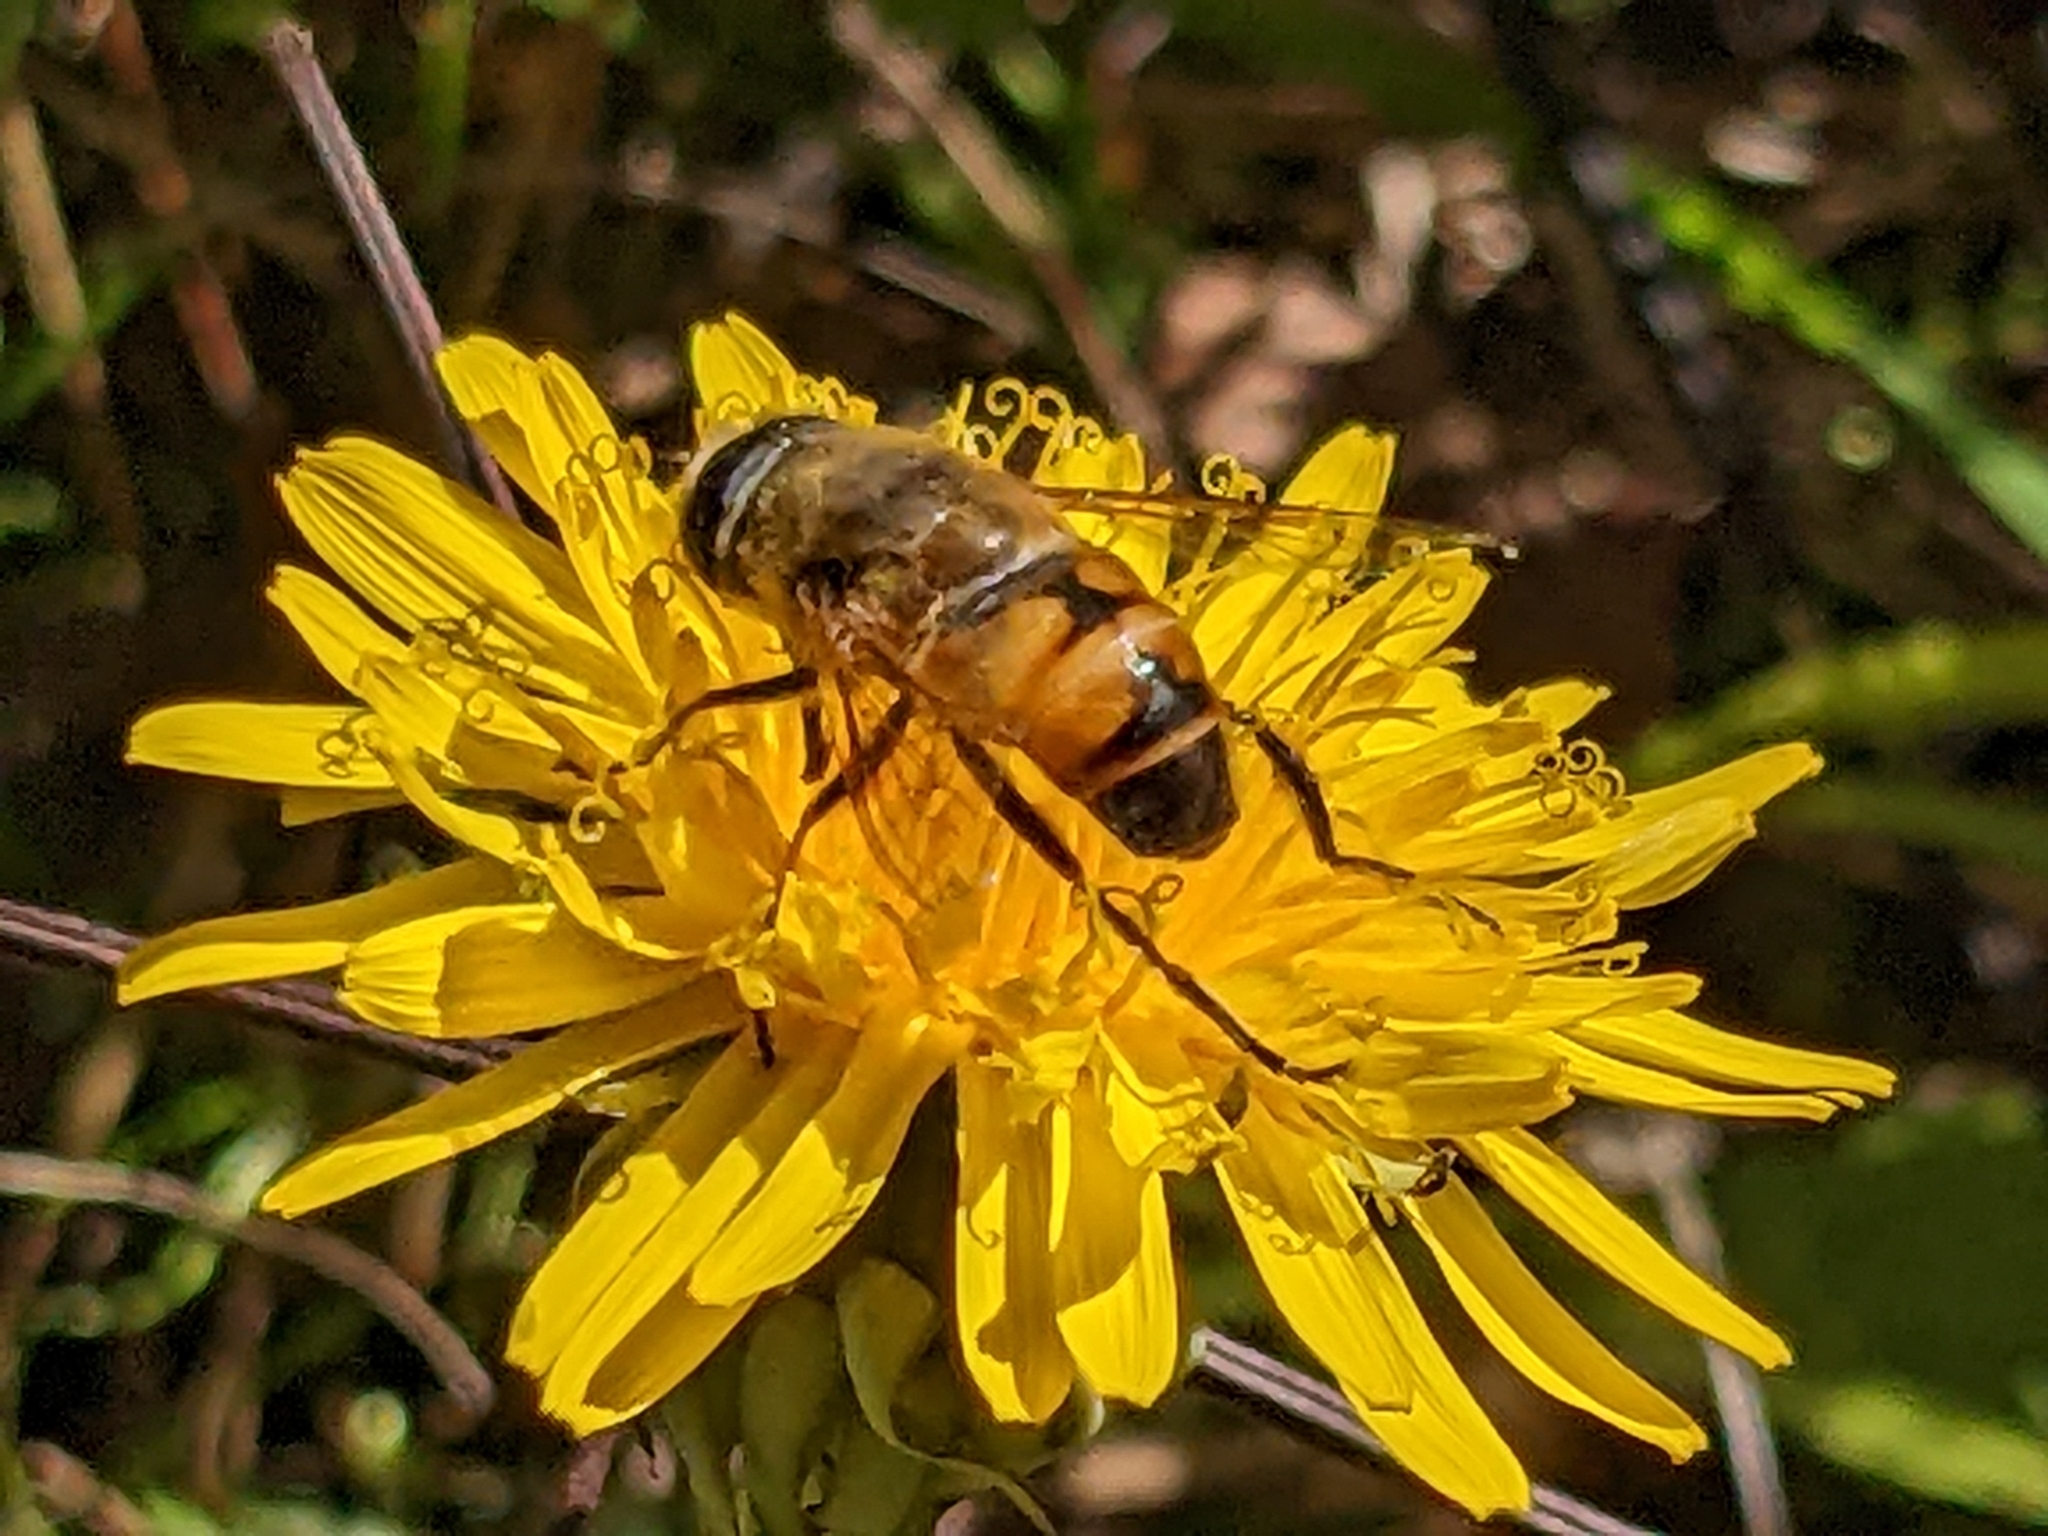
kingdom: Animalia
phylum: Arthropoda
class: Insecta
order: Diptera
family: Syrphidae
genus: Eristalis
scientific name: Eristalis tenax
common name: Drone fly
